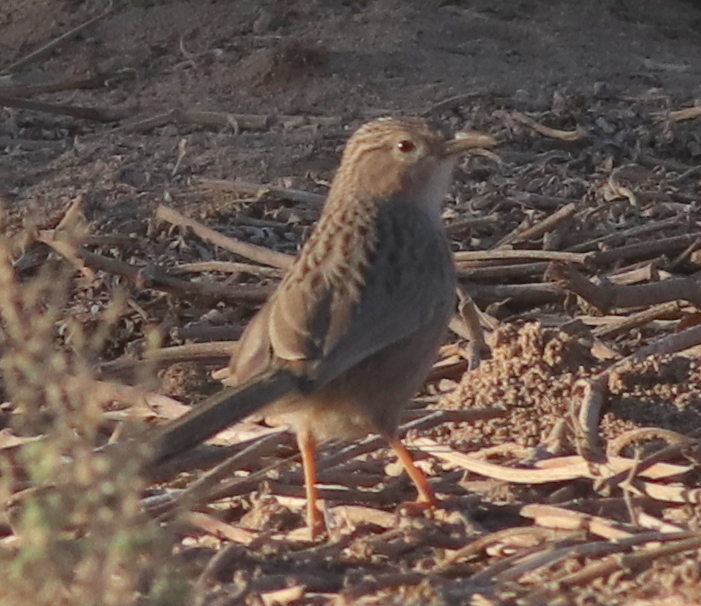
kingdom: Animalia
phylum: Chordata
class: Aves
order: Passeriformes
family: Leiothrichidae
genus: Turdoides
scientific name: Turdoides huttoni
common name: Afghan babbler
